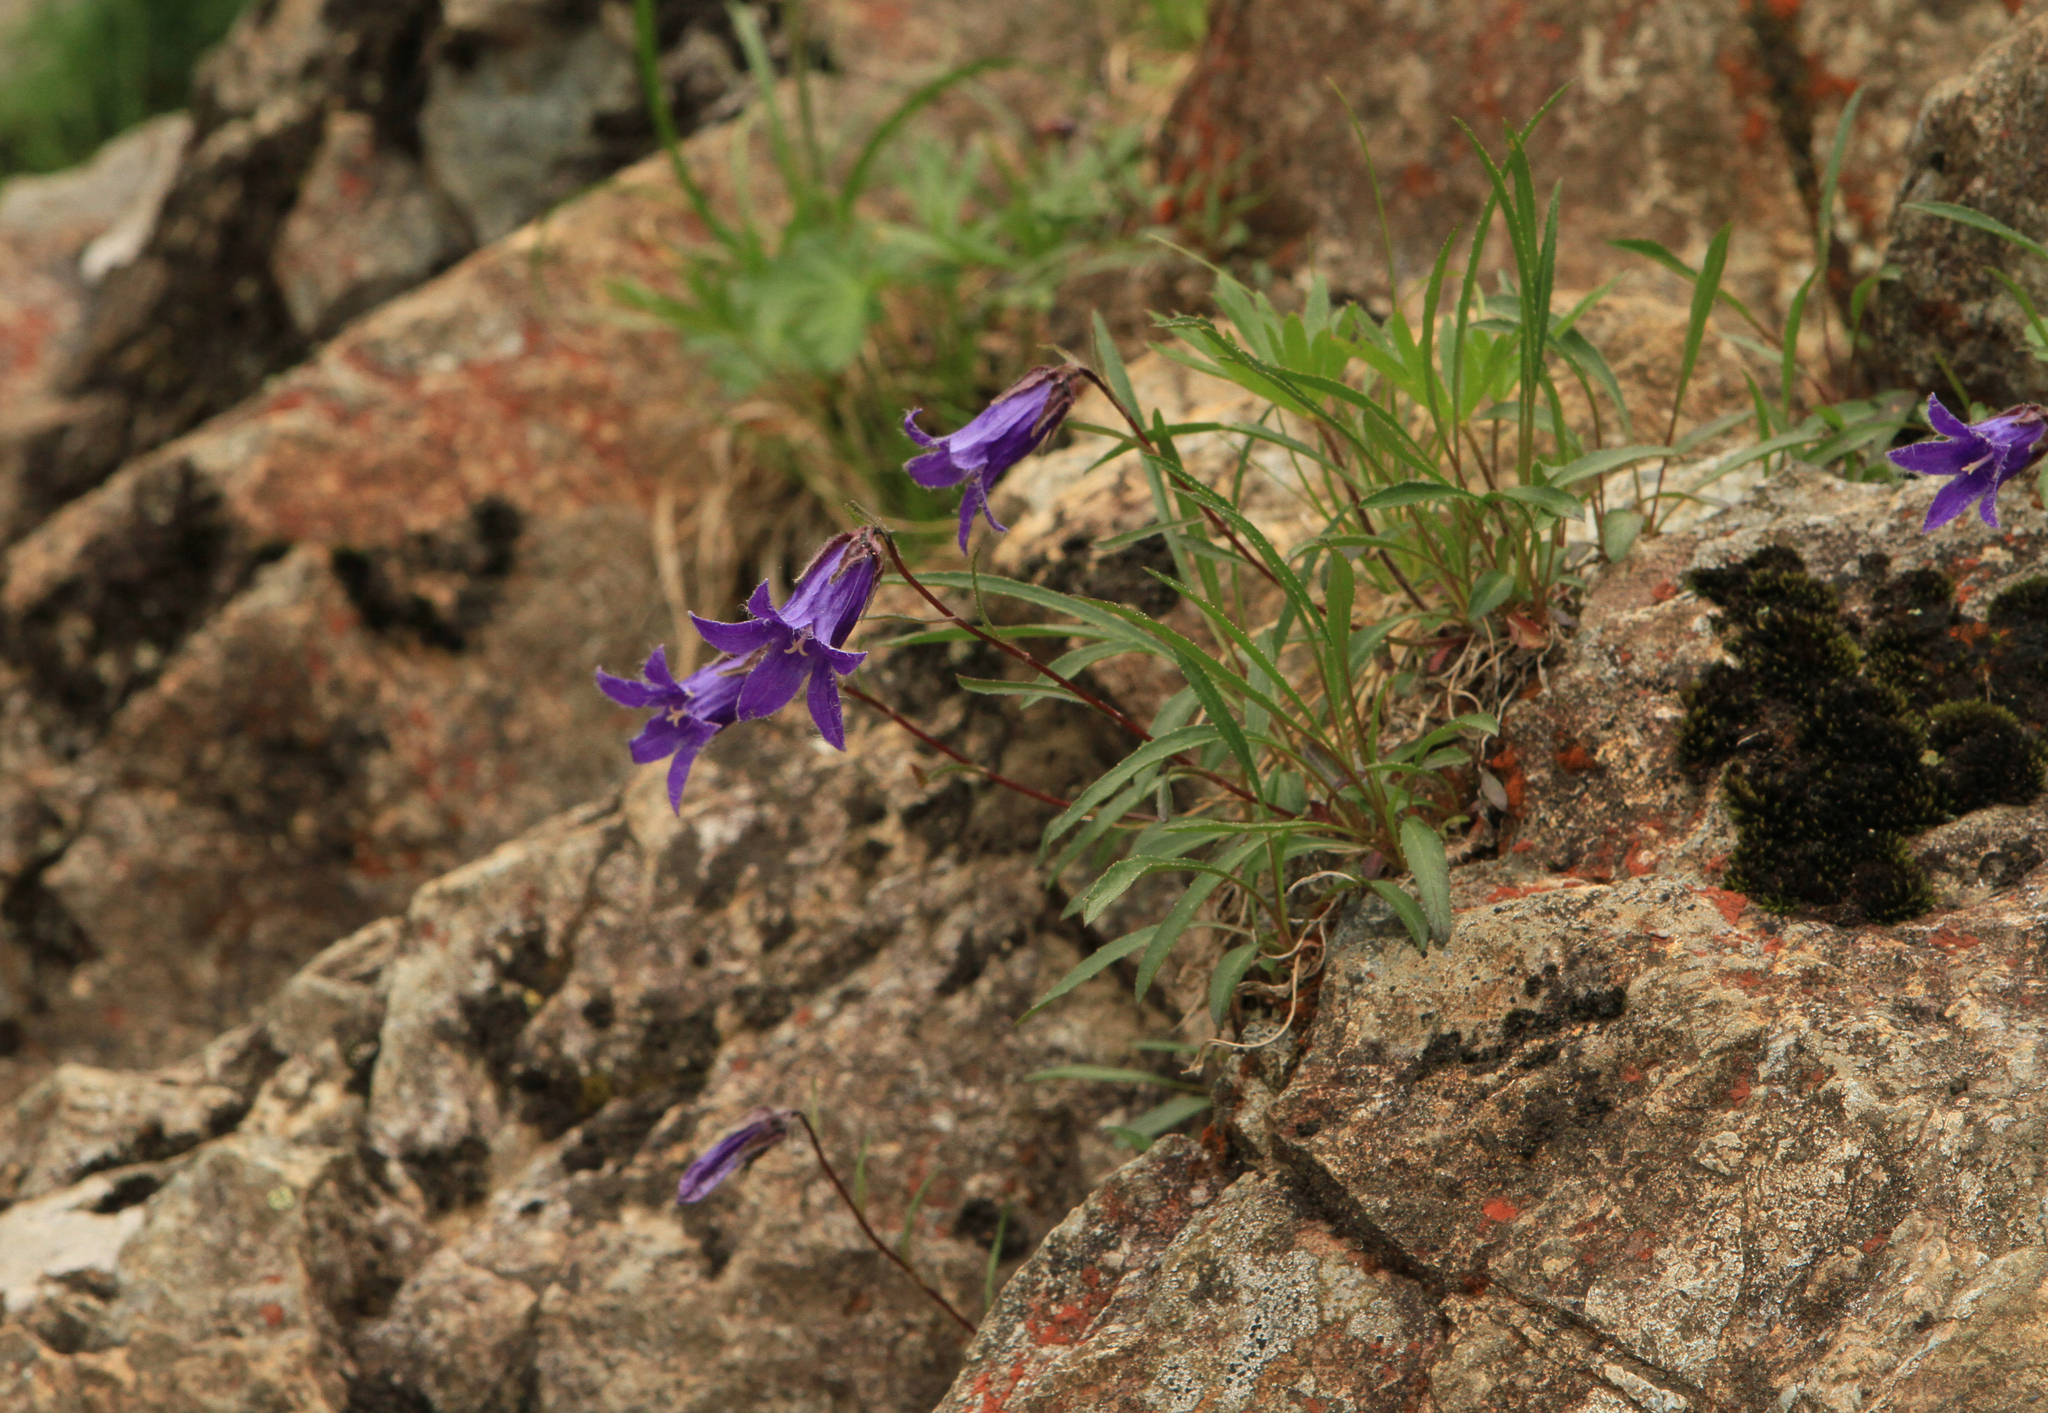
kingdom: Plantae
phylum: Tracheophyta
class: Magnoliopsida
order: Asterales
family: Campanulaceae
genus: Campanula
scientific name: Campanula dasyantha
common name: Hairyflower bellflower
